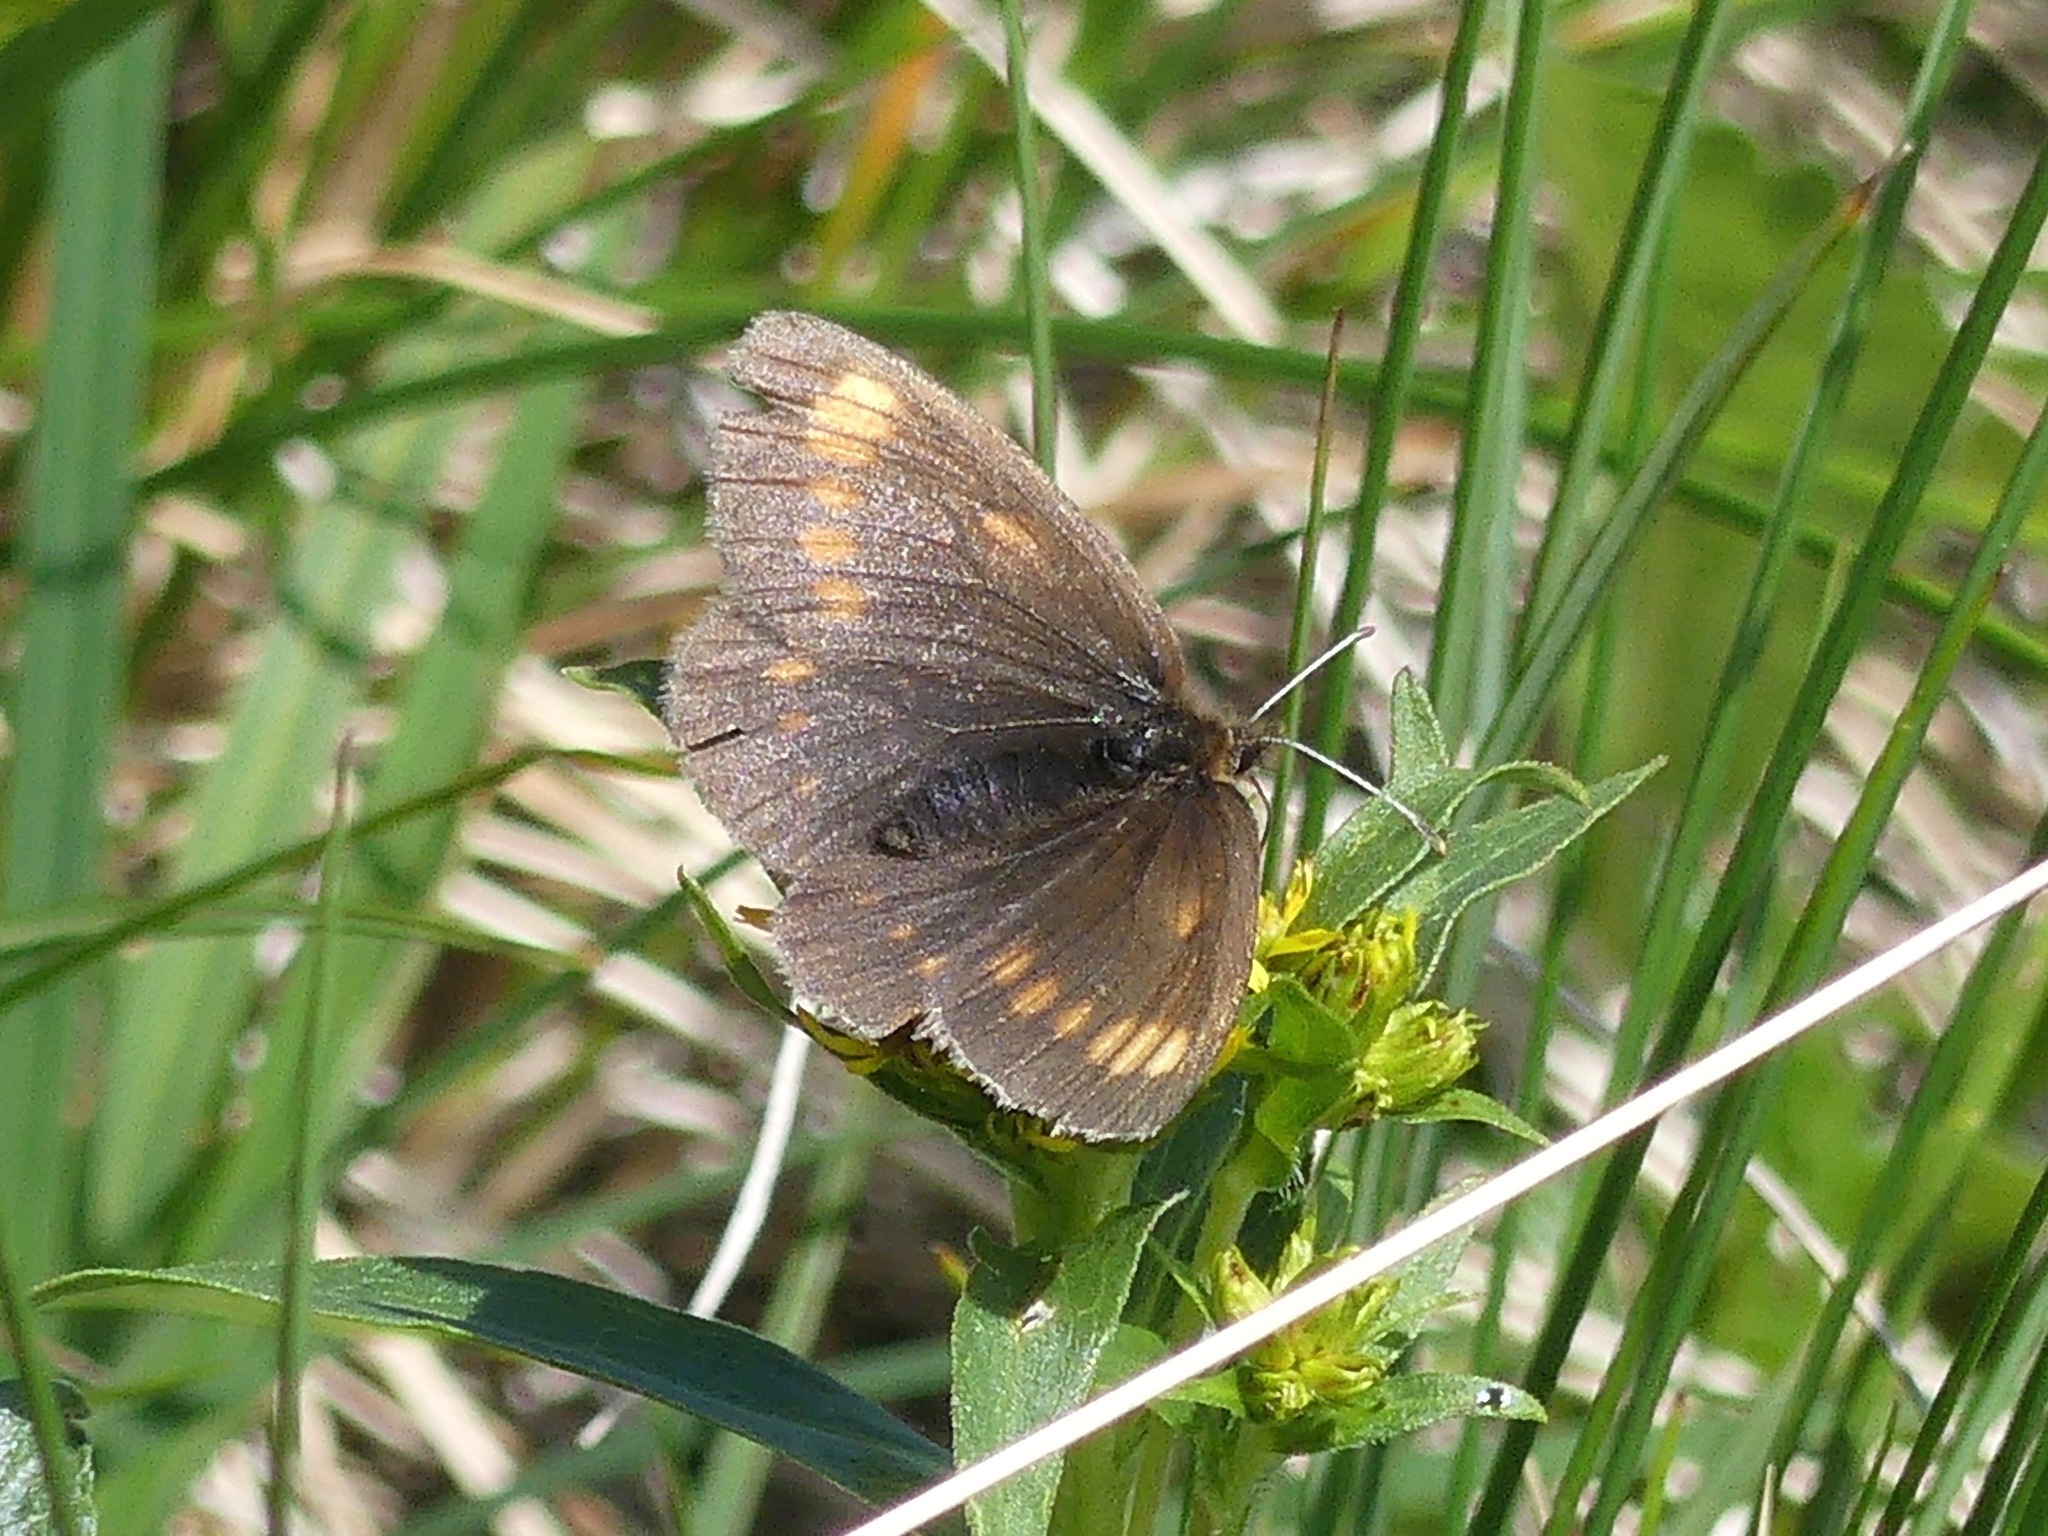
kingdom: Animalia
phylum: Arthropoda
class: Insecta
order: Lepidoptera
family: Nymphalidae
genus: Erebia
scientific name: Erebia pawloskii
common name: Theano alpine
